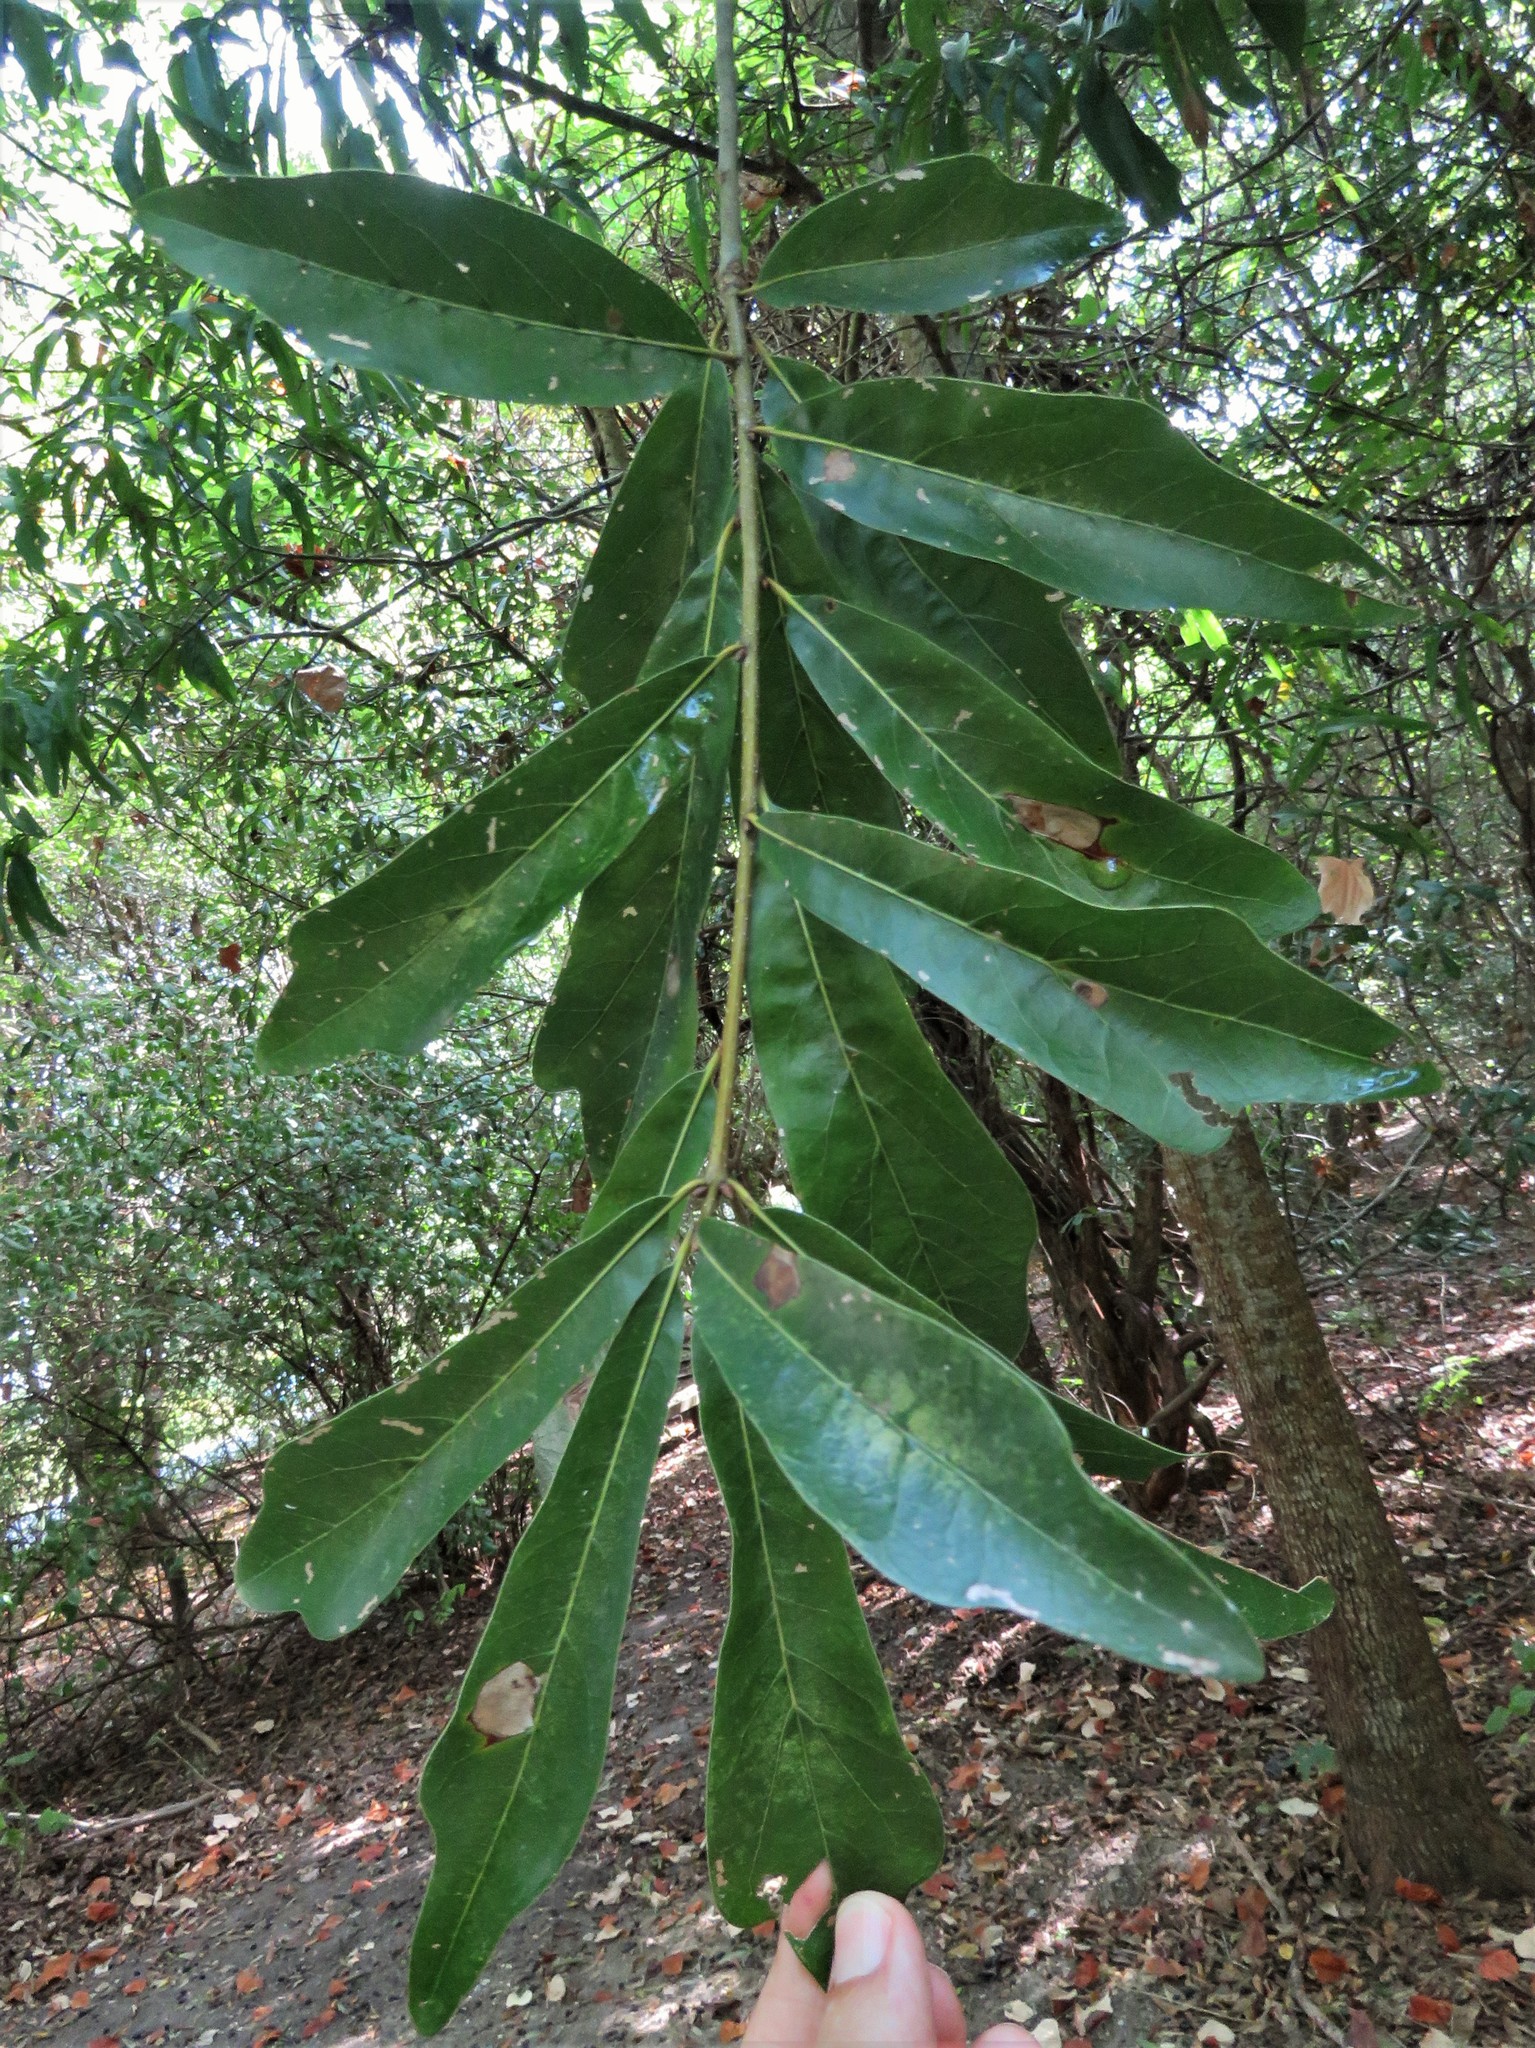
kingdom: Plantae
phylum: Tracheophyta
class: Magnoliopsida
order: Fagales
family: Fagaceae
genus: Quercus
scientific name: Quercus nigra
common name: Water oak
